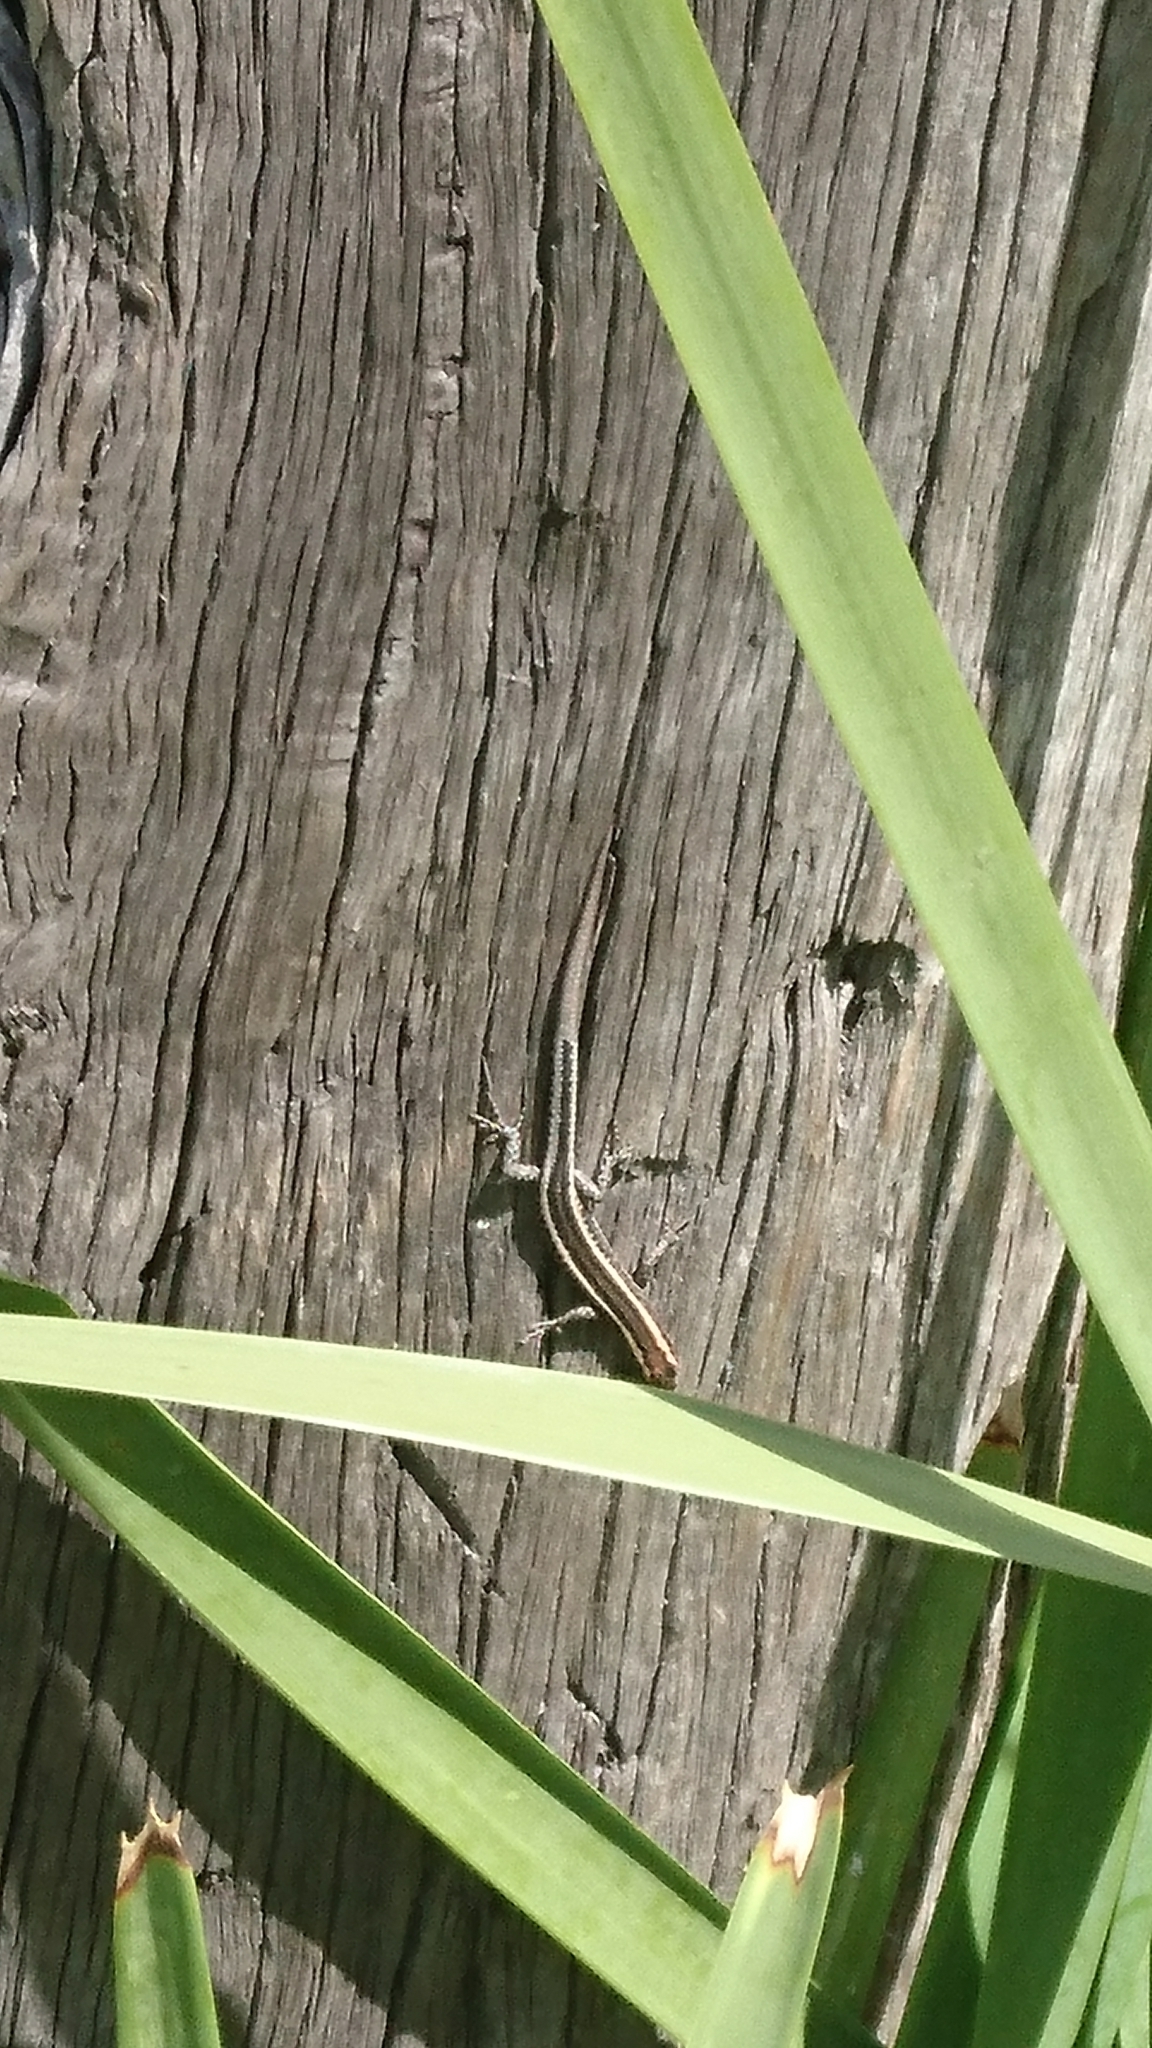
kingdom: Animalia
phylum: Chordata
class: Squamata
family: Scincidae
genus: Cryptoblepharus
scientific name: Cryptoblepharus pulcher
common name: Elegant snake-eyed skink
